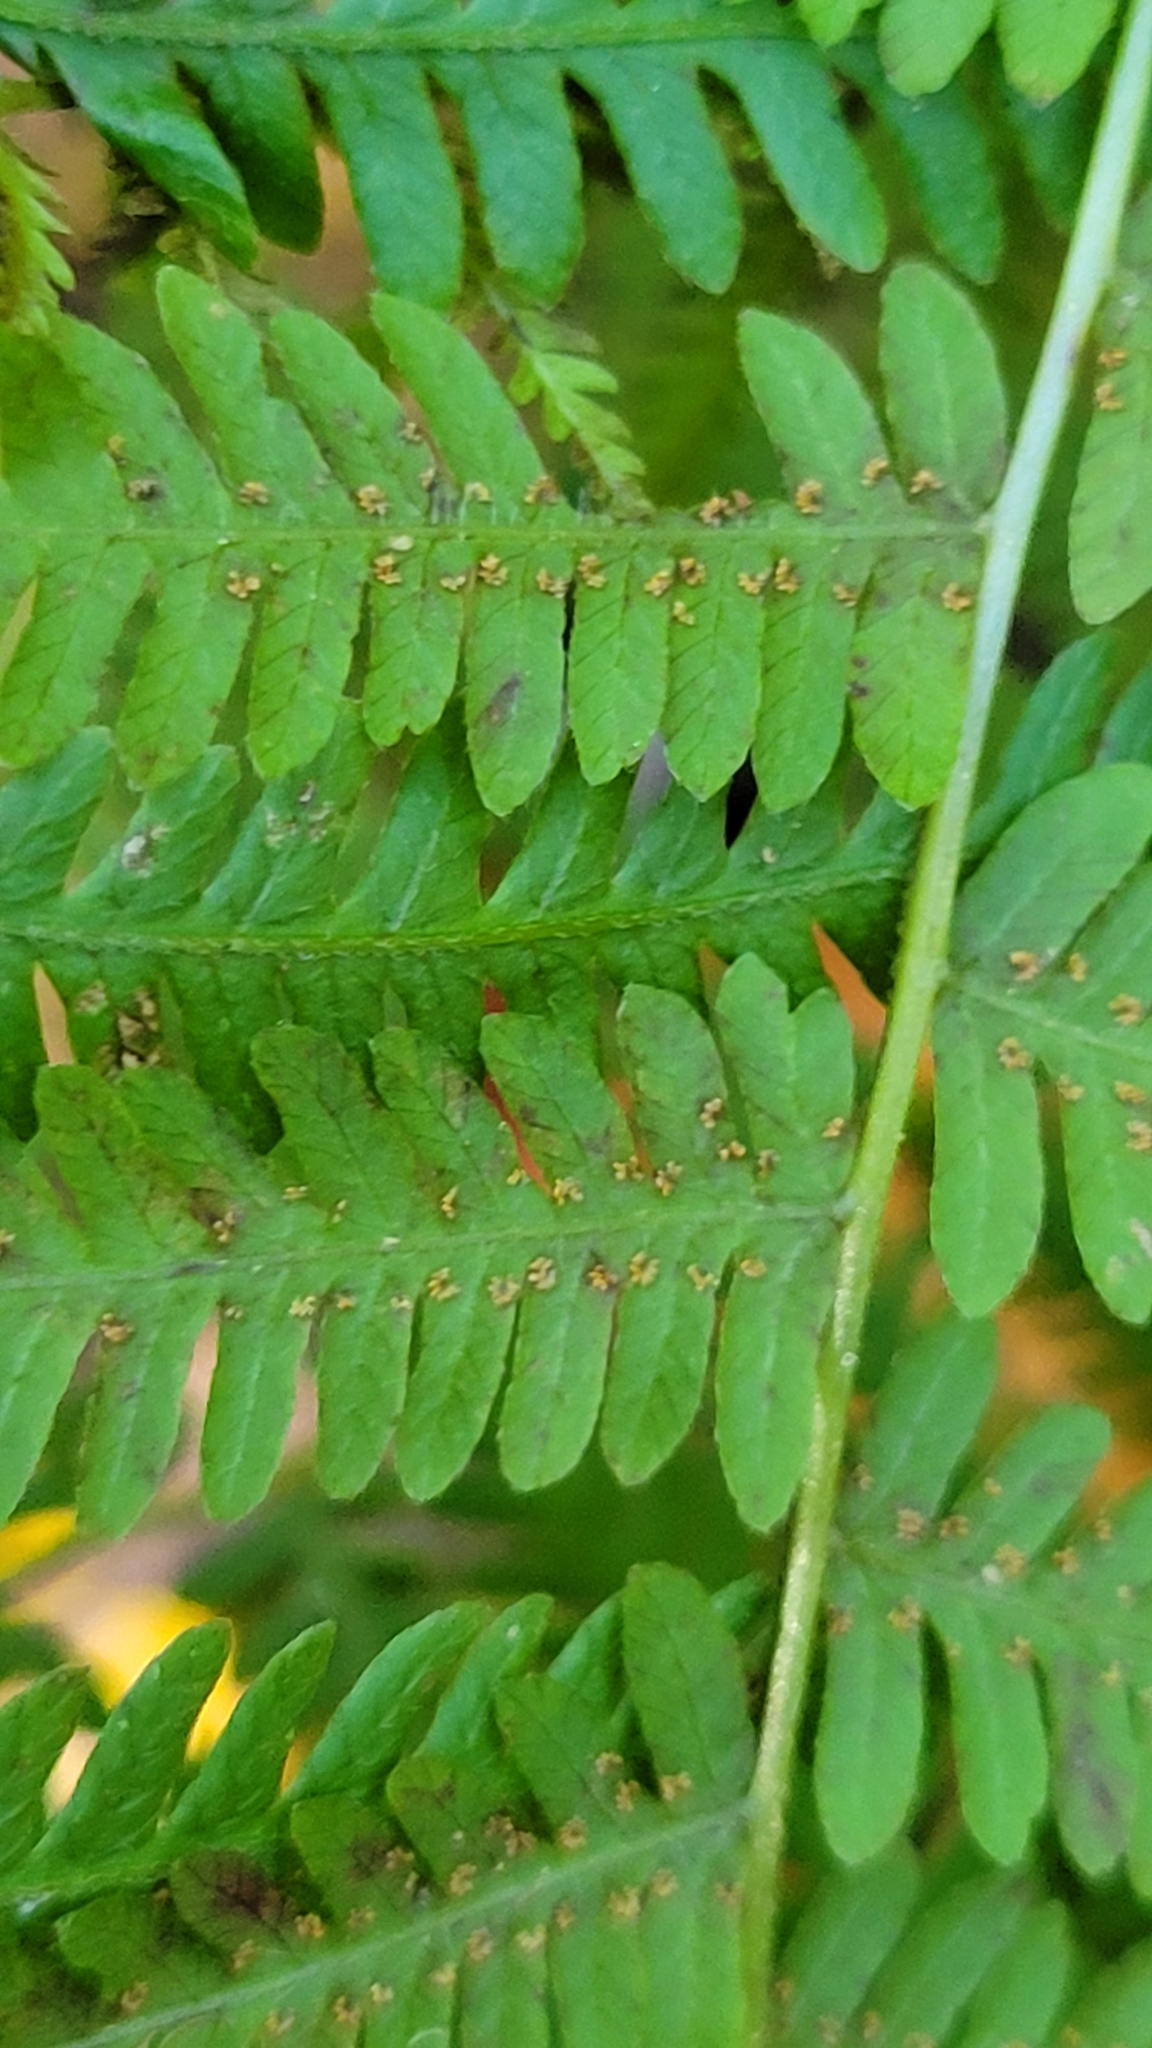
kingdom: Plantae
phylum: Tracheophyta
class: Polypodiopsida
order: Polypodiales
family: Thelypteridaceae
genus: Amauropelta
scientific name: Amauropelta noveboracensis
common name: New york fern
